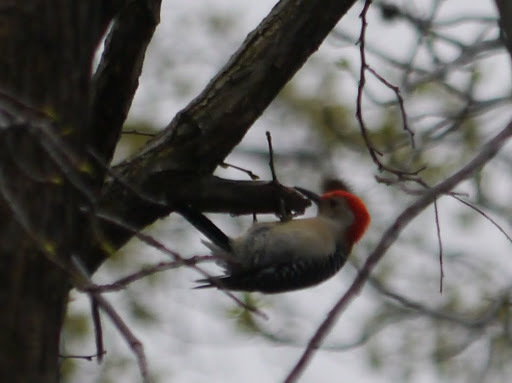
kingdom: Animalia
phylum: Chordata
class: Aves
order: Piciformes
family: Picidae
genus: Melanerpes
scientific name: Melanerpes carolinus
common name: Red-bellied woodpecker
